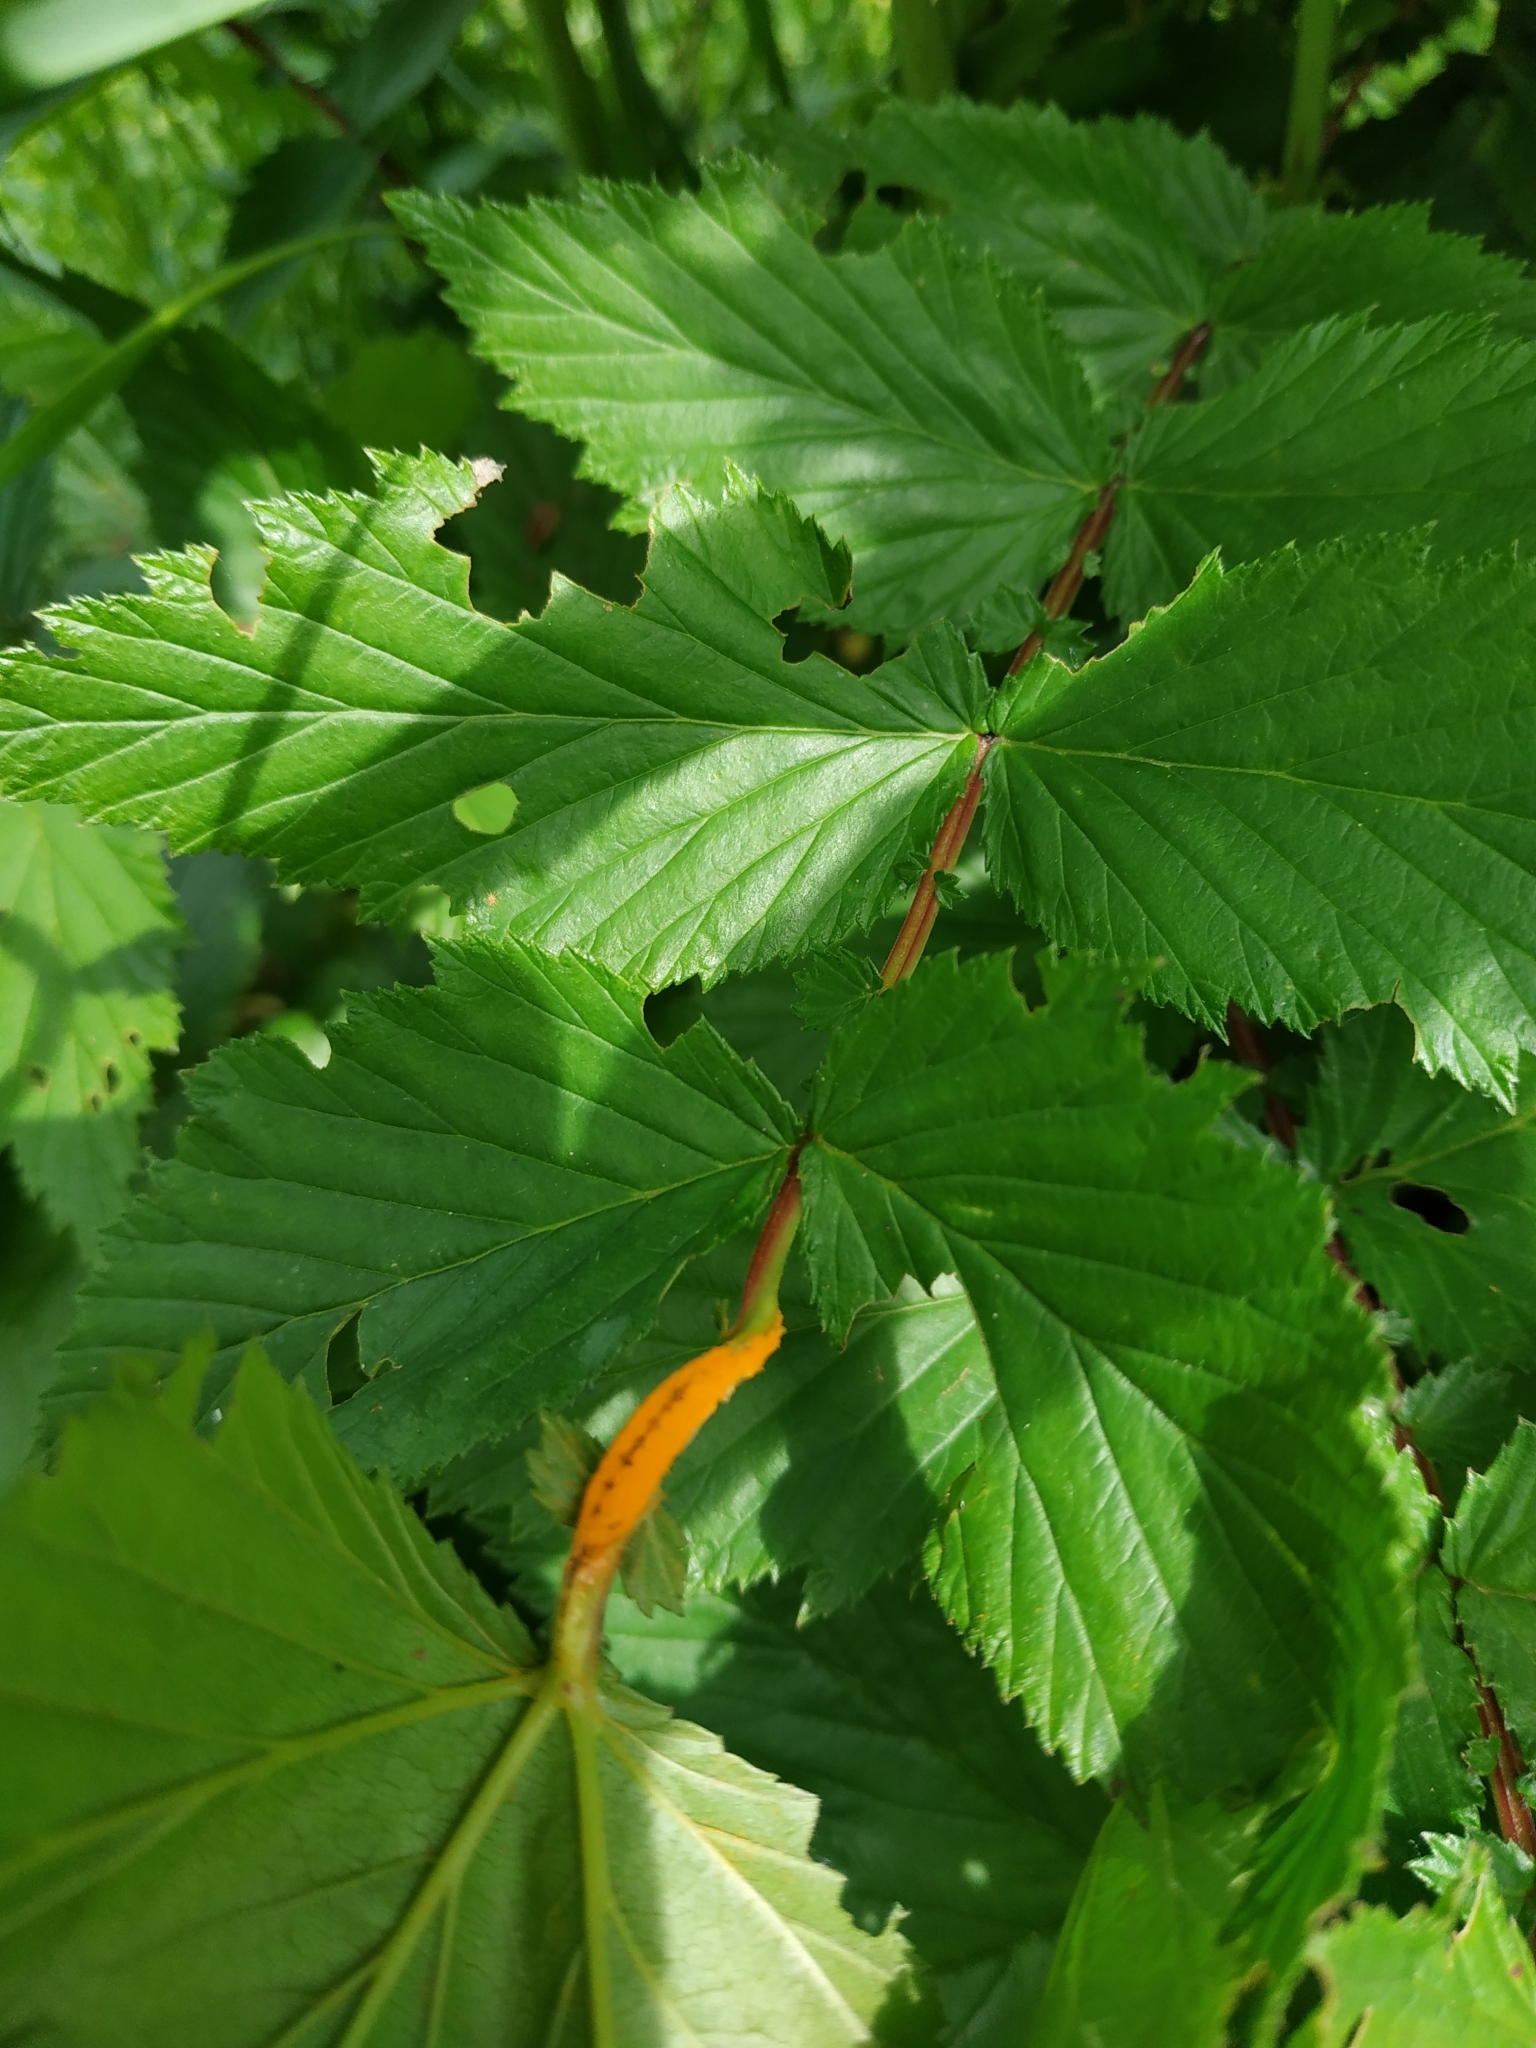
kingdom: Fungi
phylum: Basidiomycota
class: Pucciniomycetes
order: Pucciniales
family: Raveneliaceae
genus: Triphragmium
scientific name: Triphragmium ulmariae
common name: Meadowsweet rust
